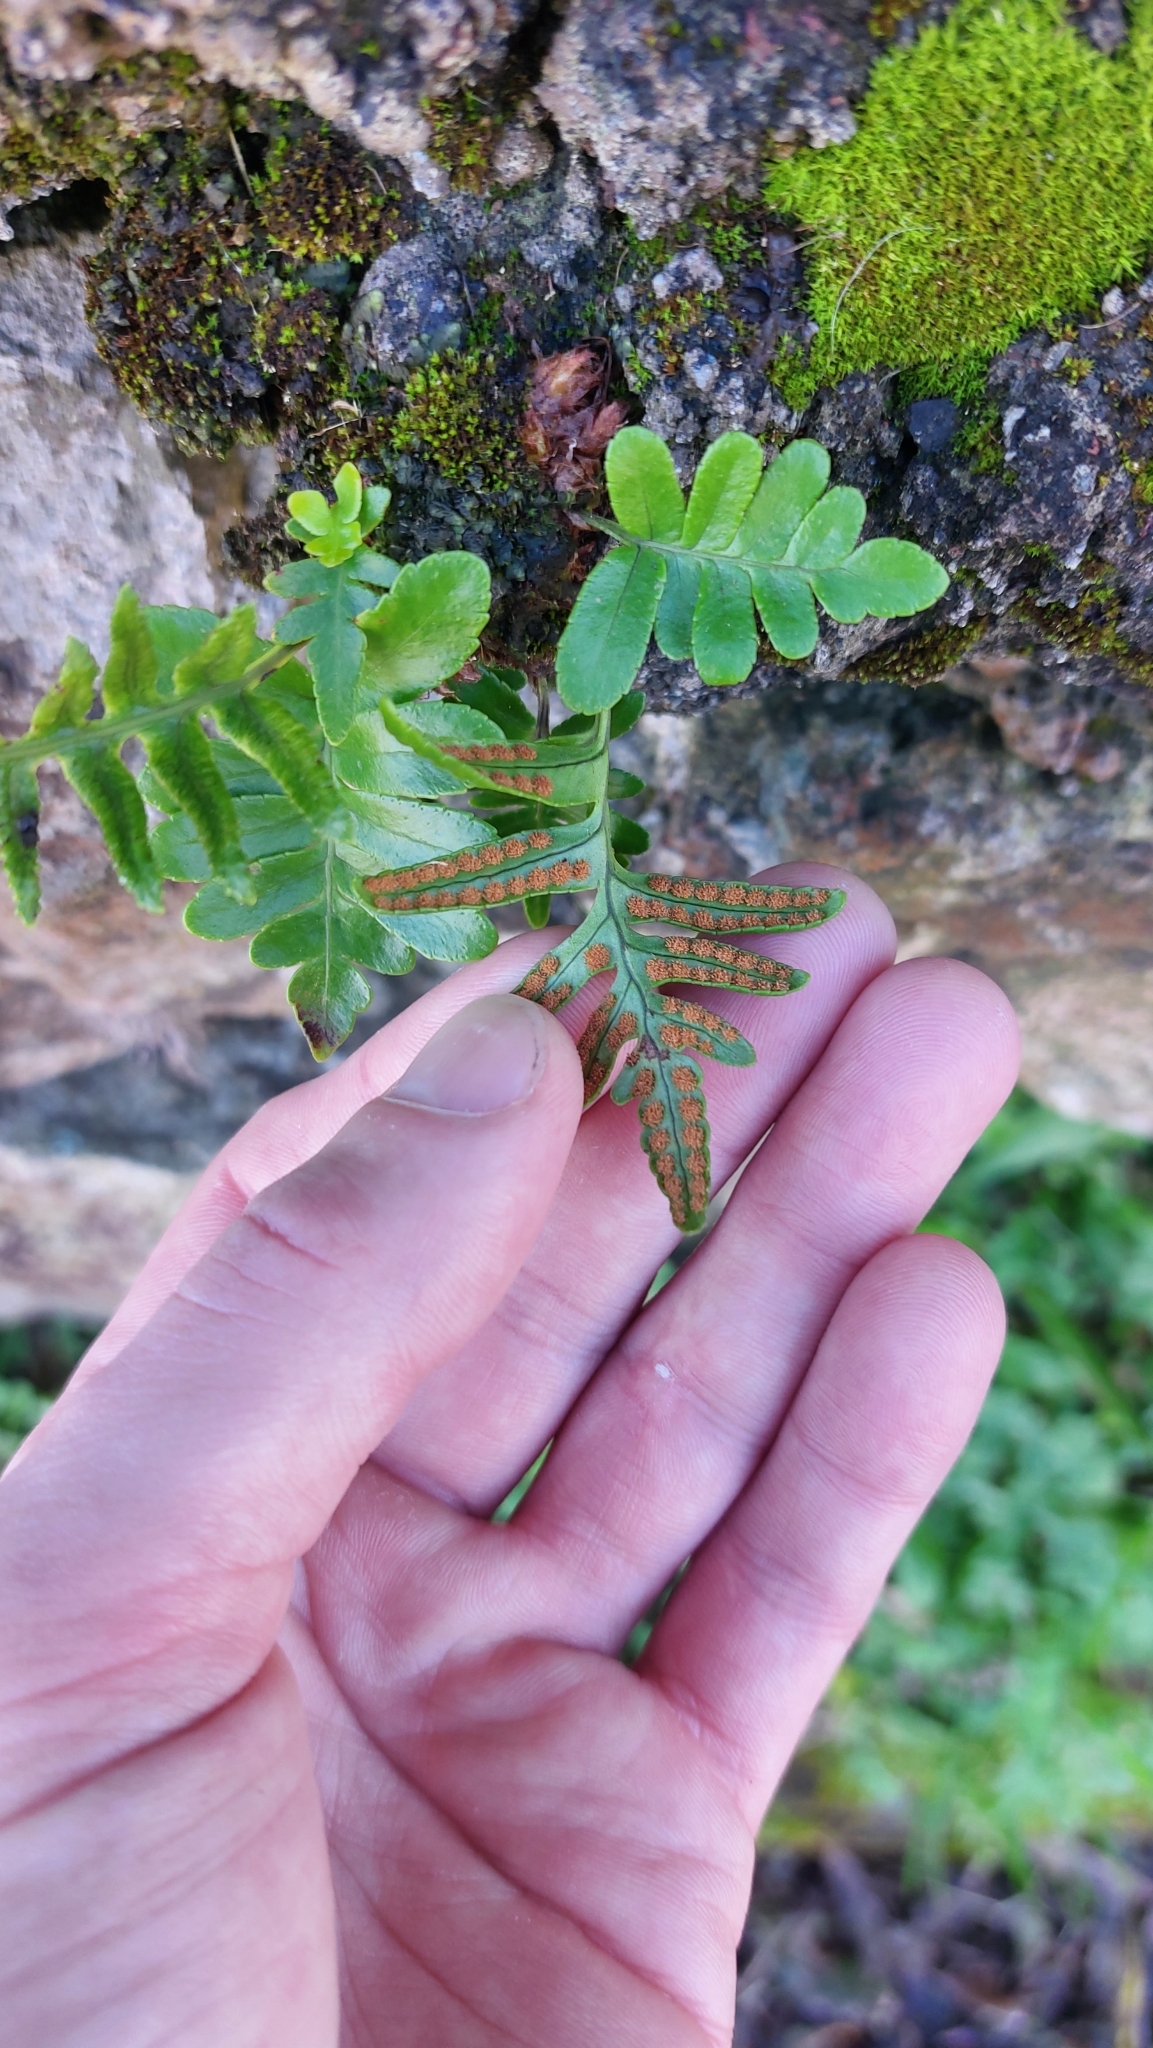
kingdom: Plantae
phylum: Tracheophyta
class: Polypodiopsida
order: Polypodiales
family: Polypodiaceae
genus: Polypodium
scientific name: Polypodium macaronesicum
